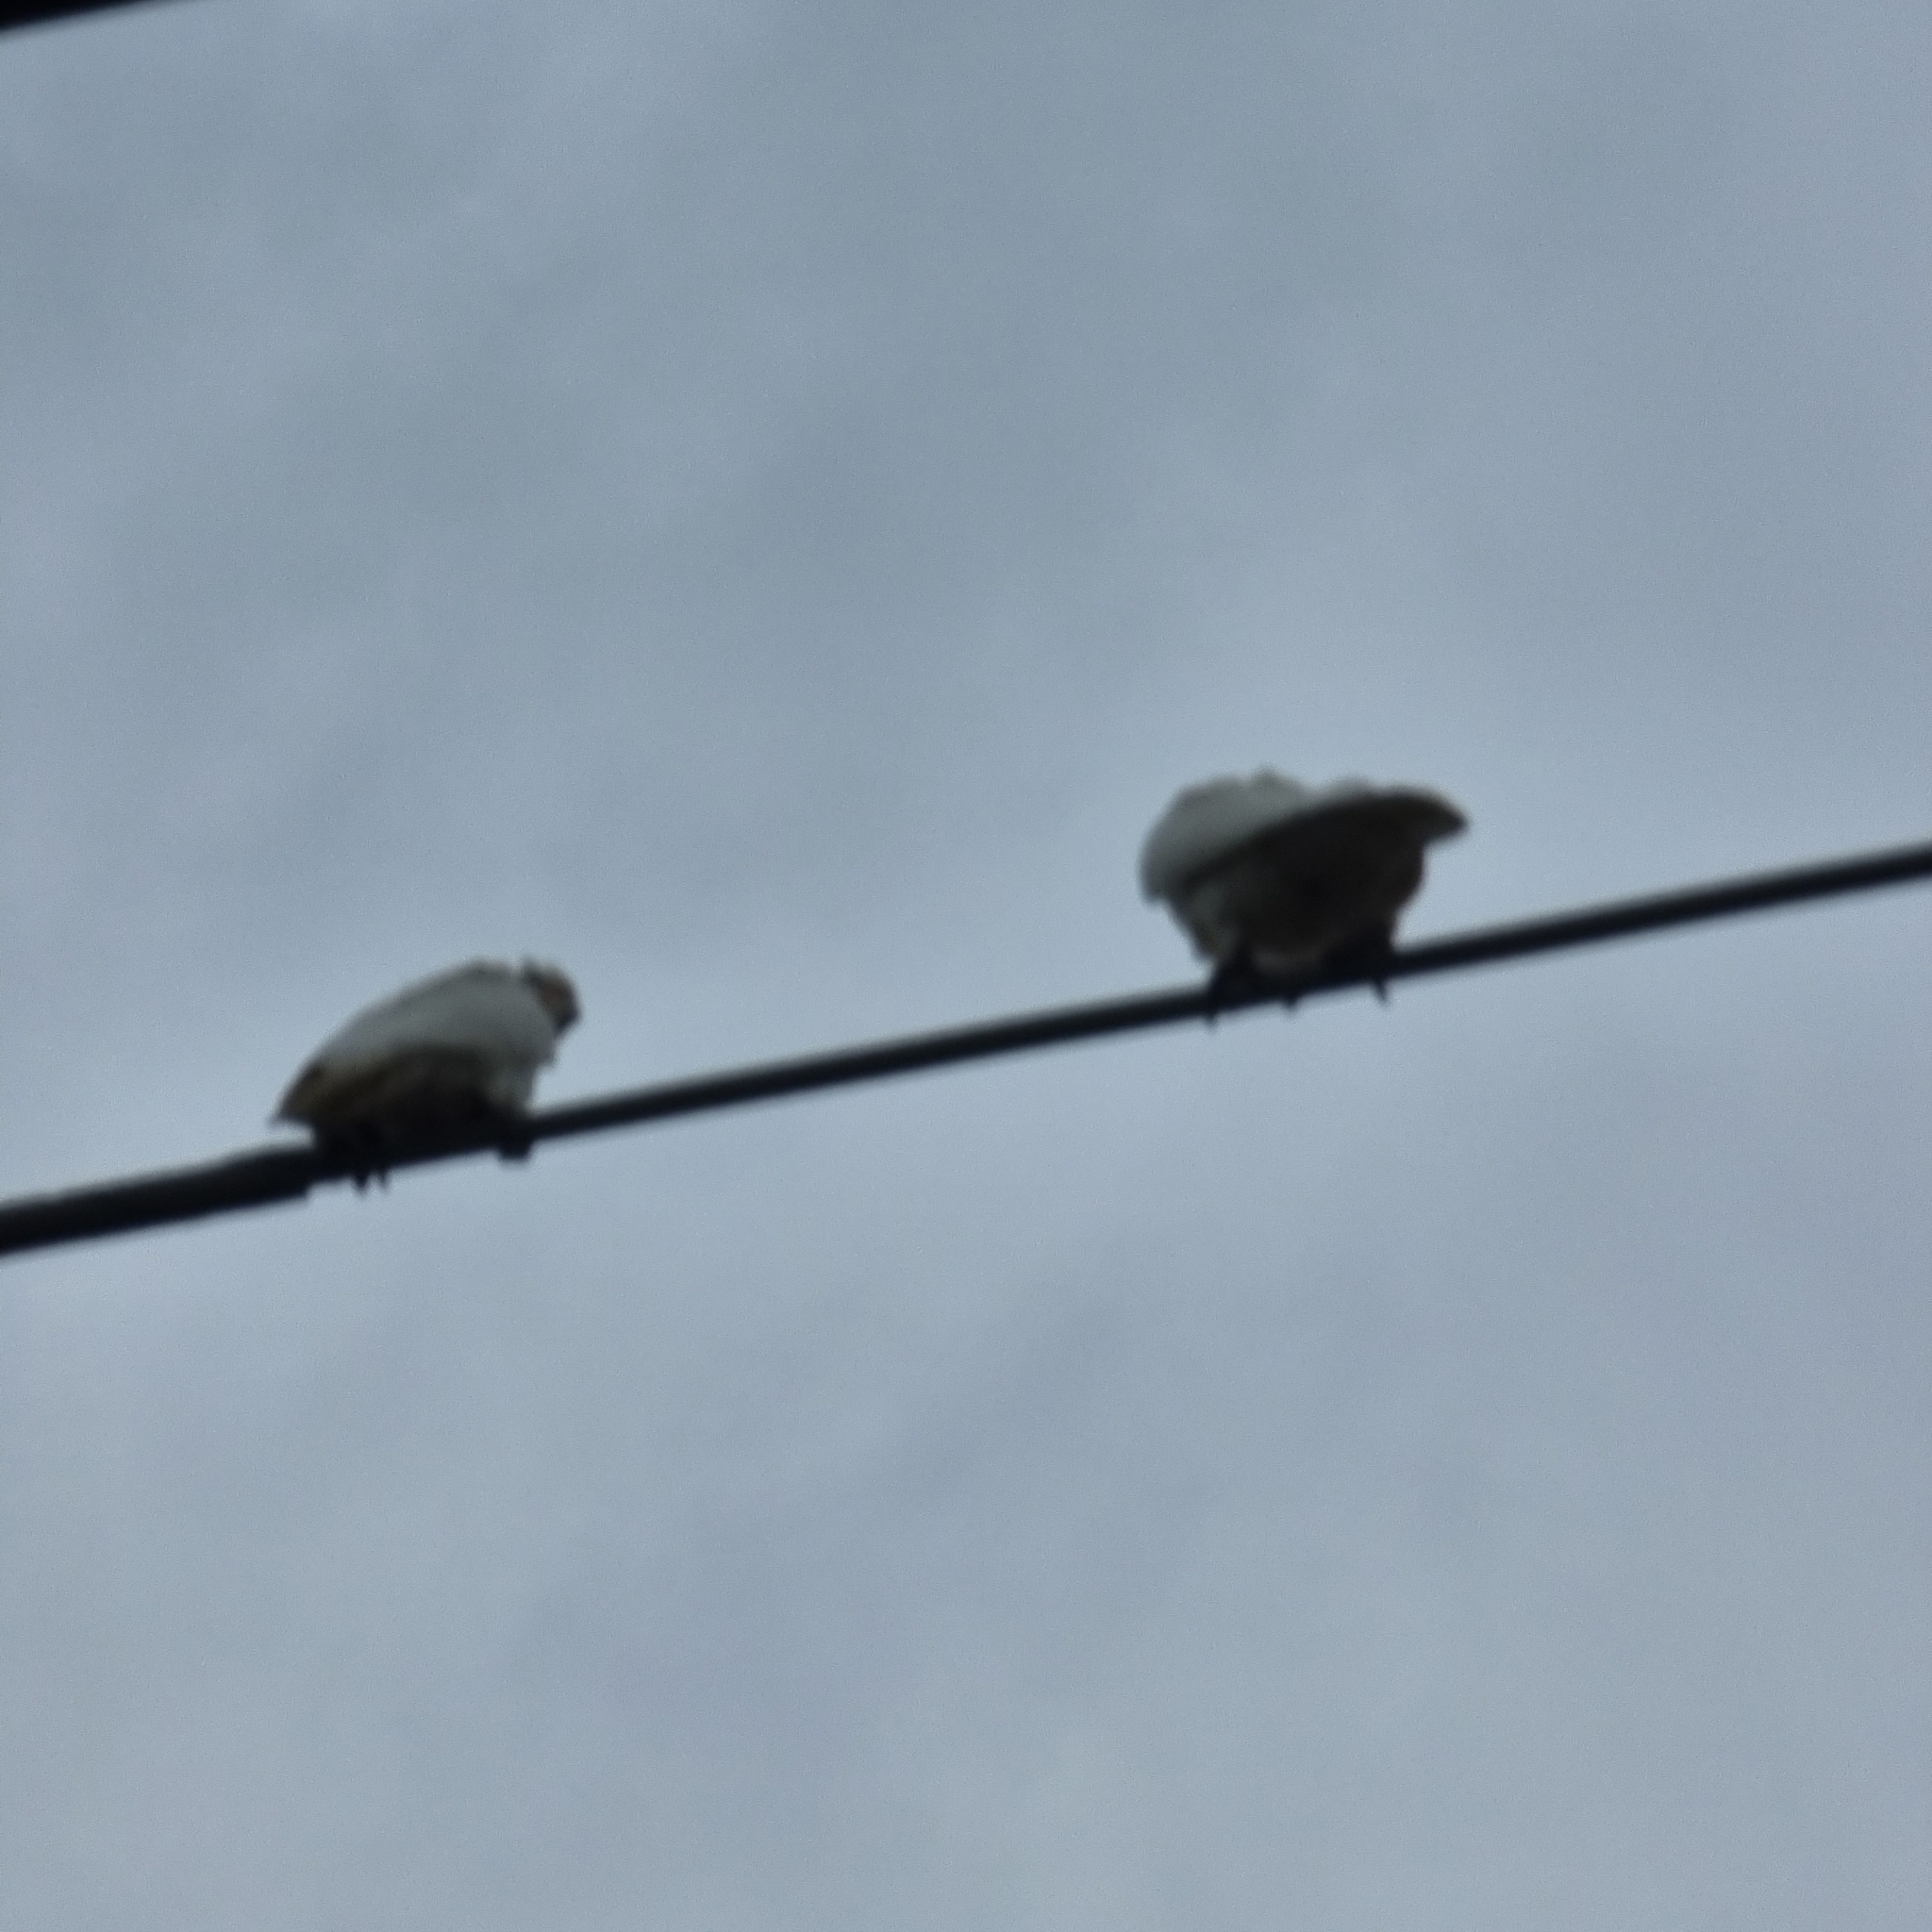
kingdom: Animalia
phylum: Chordata
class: Aves
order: Psittaciformes
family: Psittacidae
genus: Cacatua
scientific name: Cacatua sanguinea
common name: Little corella
